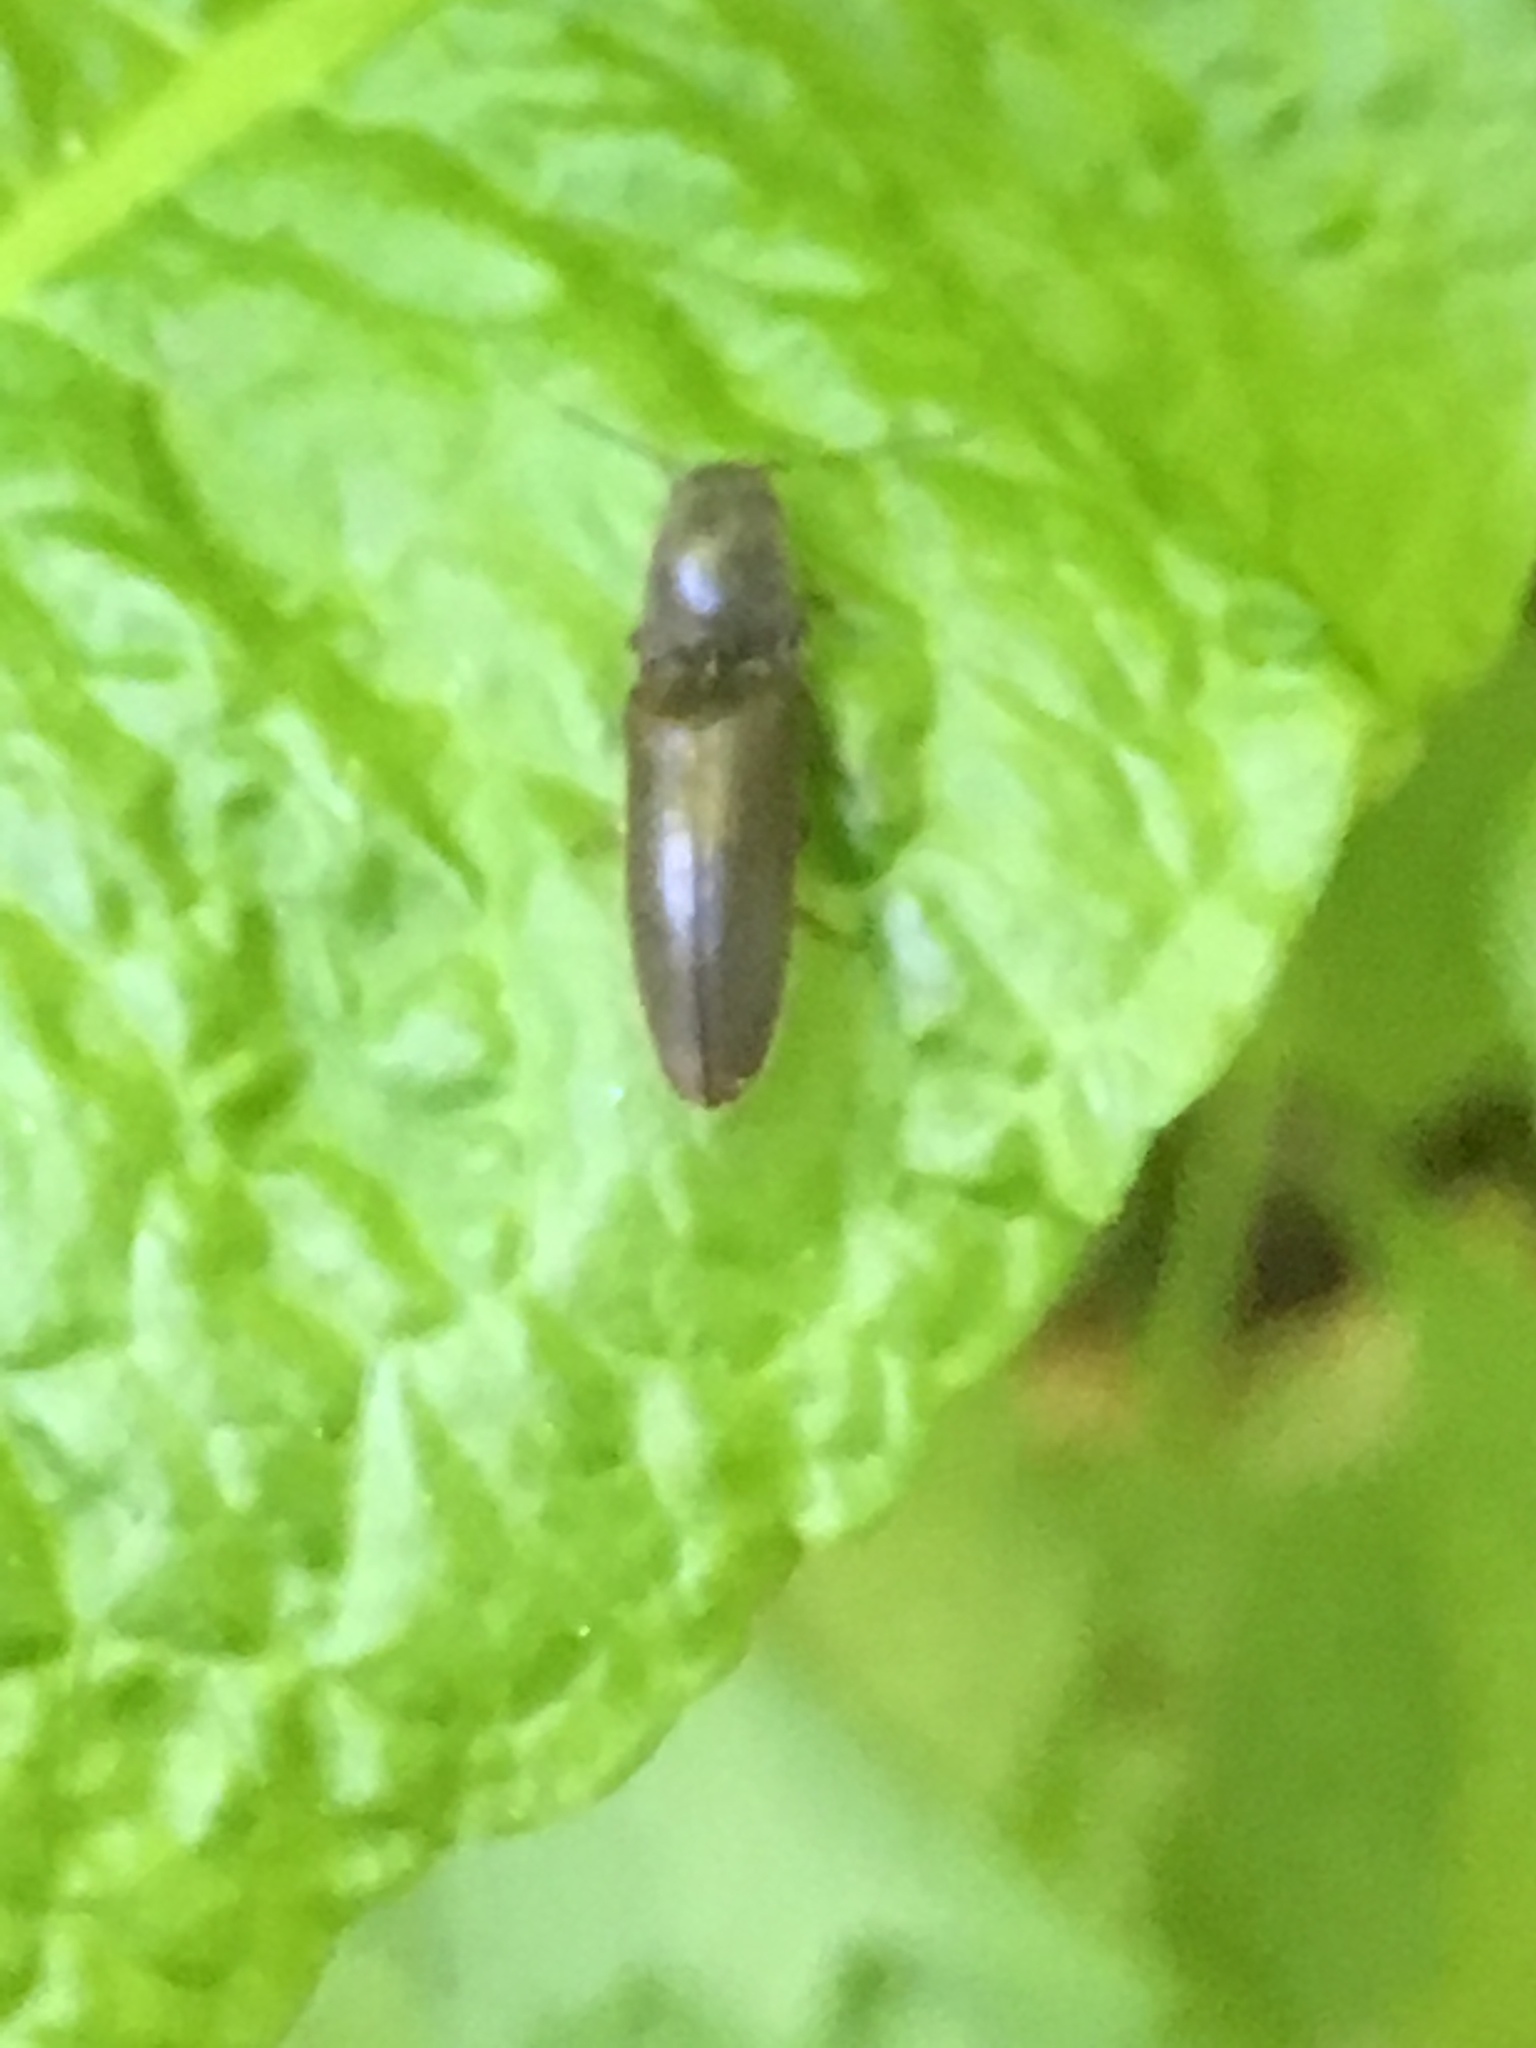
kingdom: Animalia
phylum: Arthropoda
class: Insecta
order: Coleoptera
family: Elateridae
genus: Athous
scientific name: Athous haemorrhoidalis
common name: Red-brown click beetle
